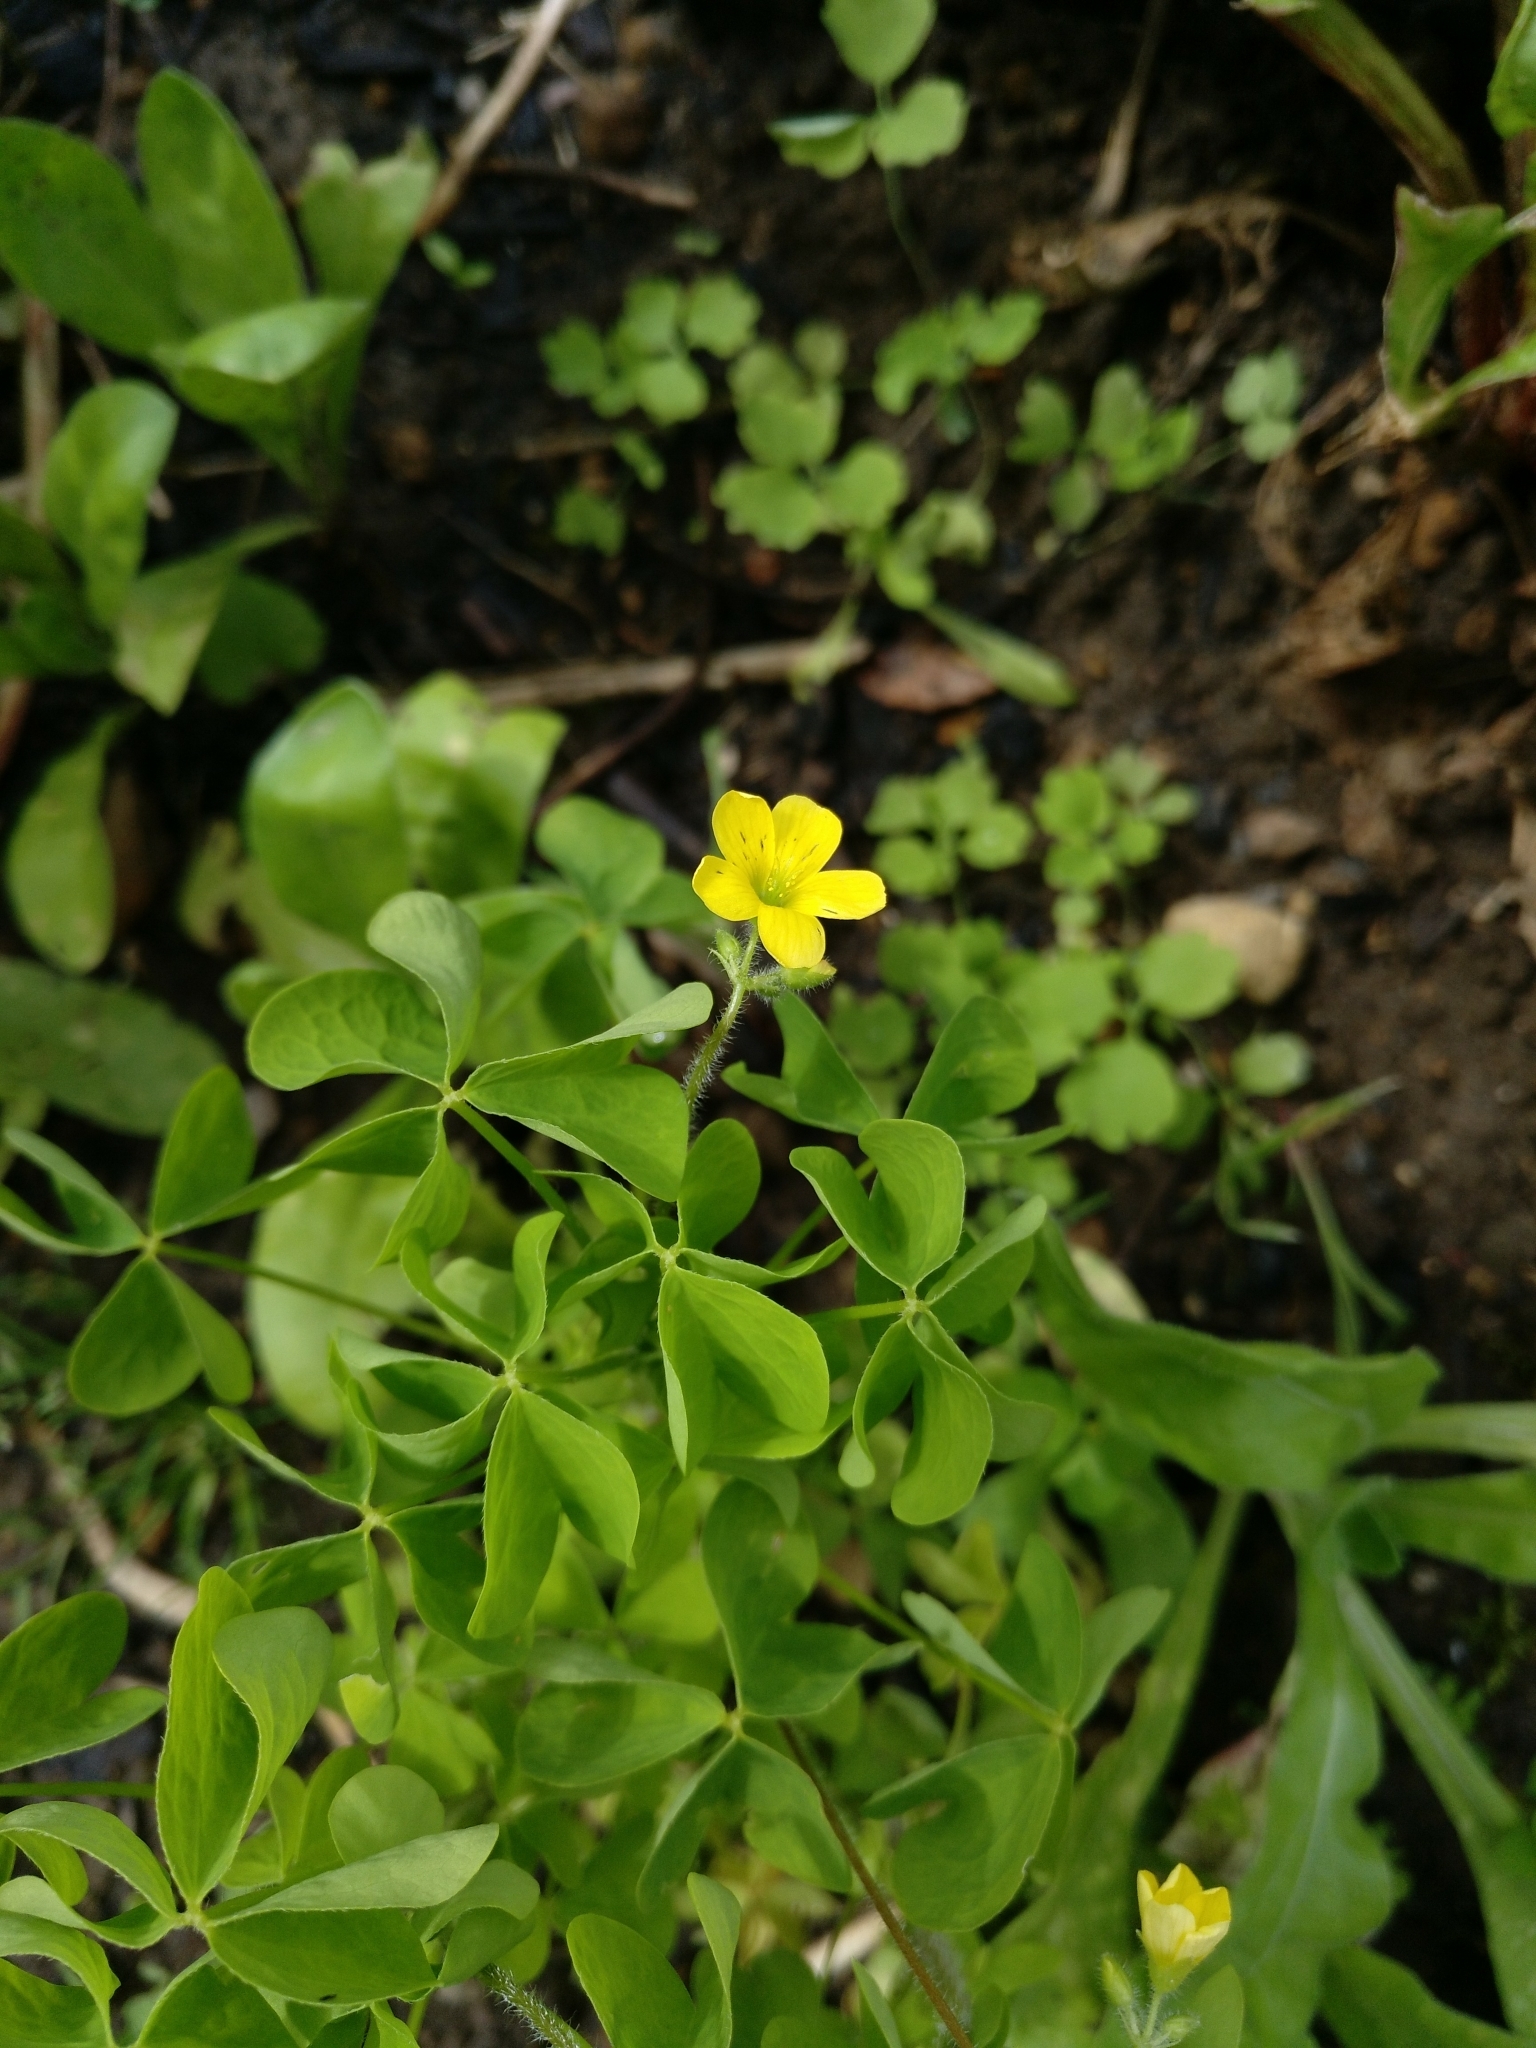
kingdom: Plantae
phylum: Tracheophyta
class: Magnoliopsida
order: Oxalidales
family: Oxalidaceae
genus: Oxalis
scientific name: Oxalis stricta
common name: Upright yellow-sorrel
